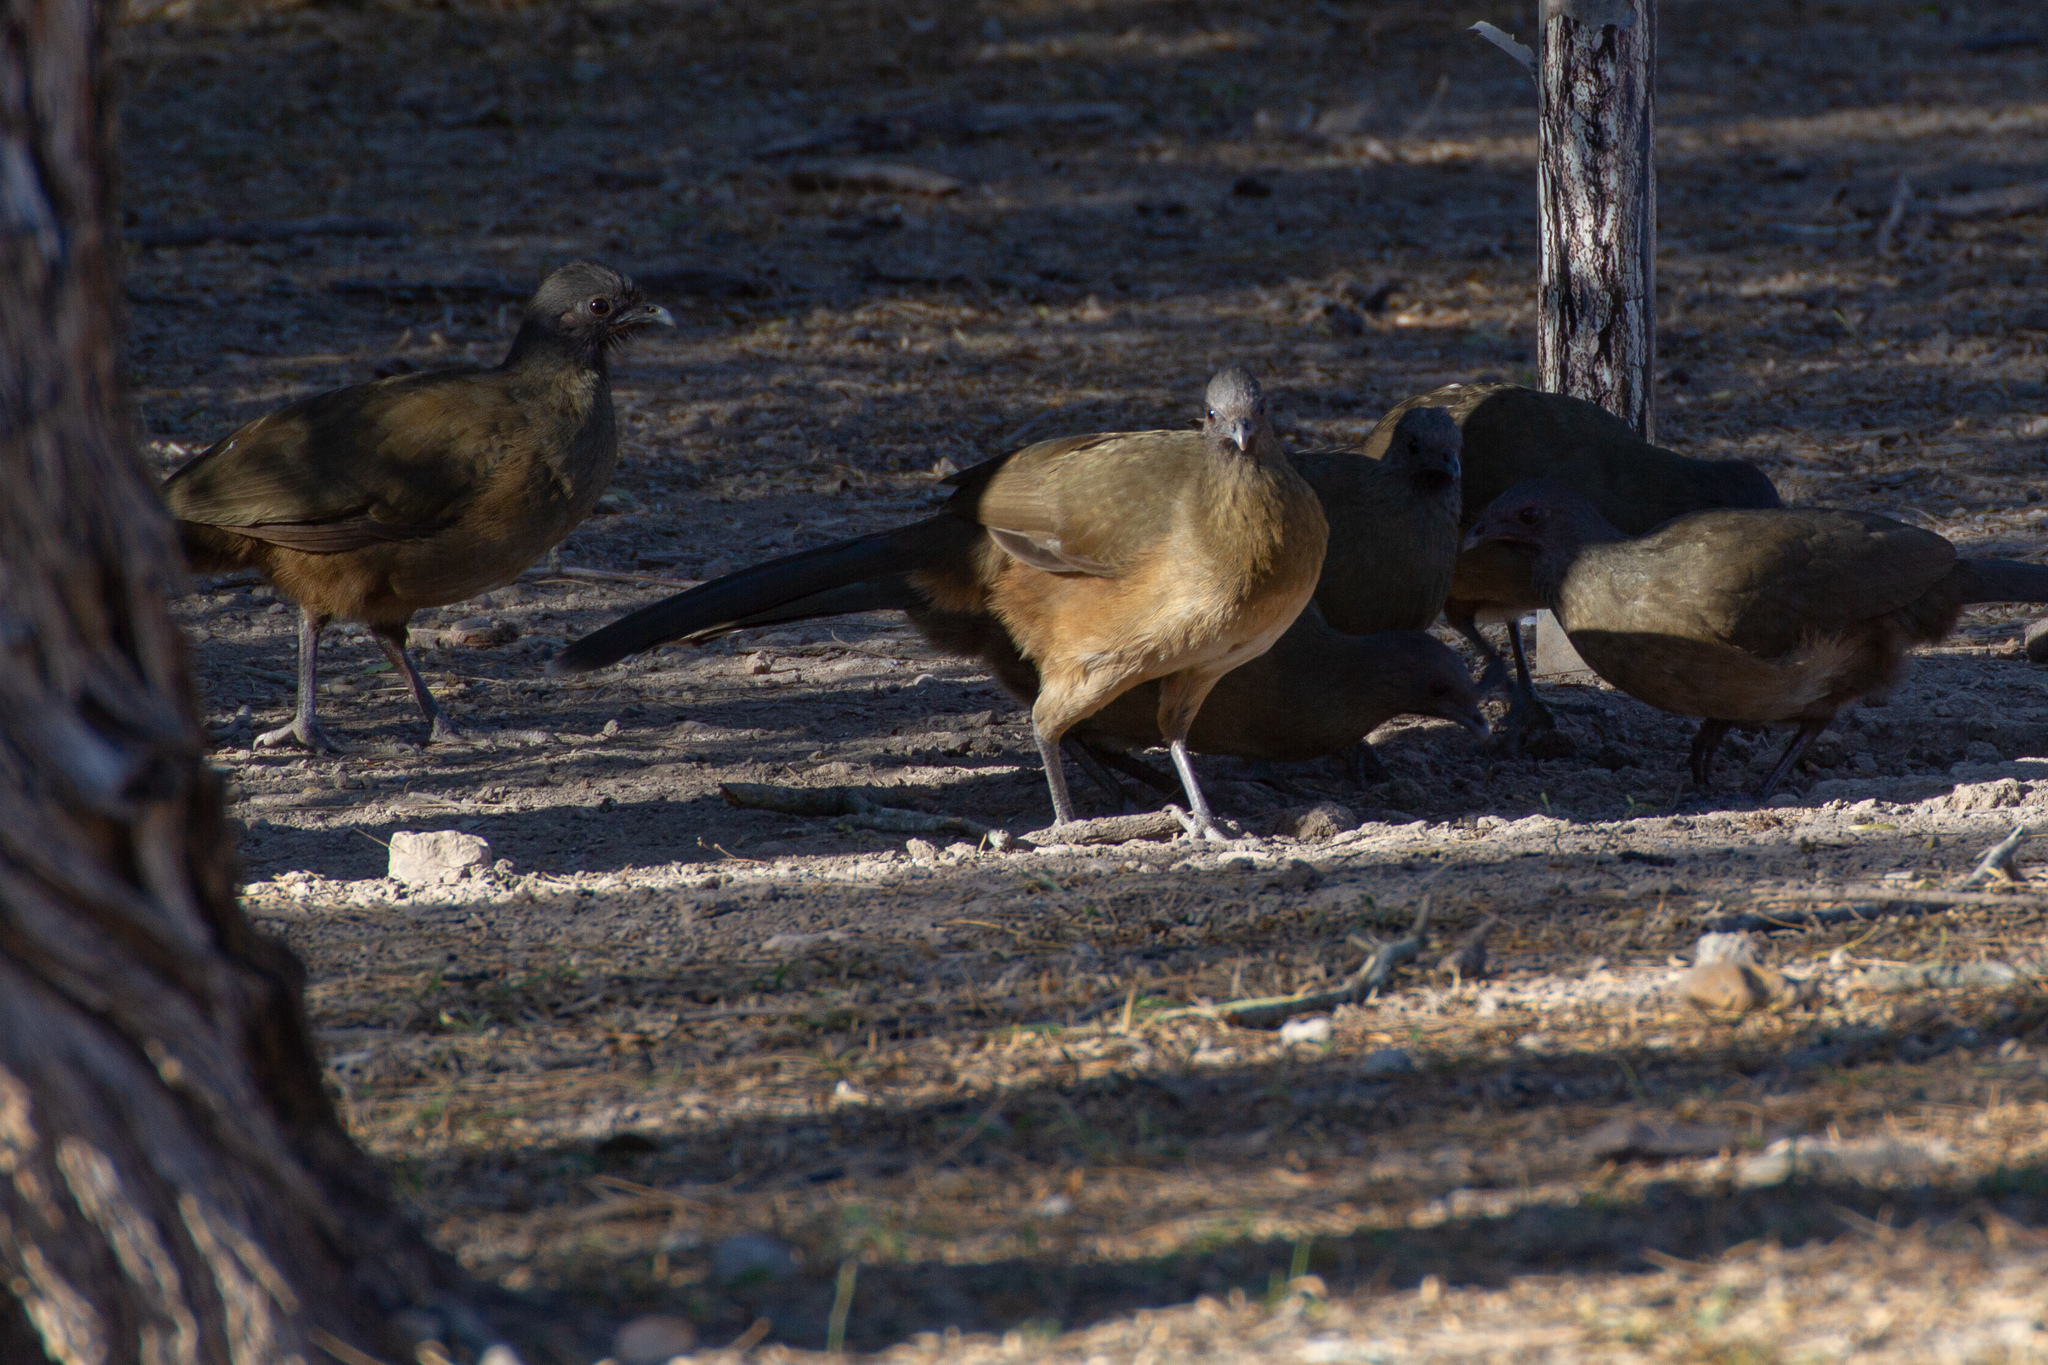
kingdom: Animalia
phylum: Chordata
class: Aves
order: Galliformes
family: Cracidae
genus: Ortalis
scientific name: Ortalis vetula
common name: Plain chachalaca
